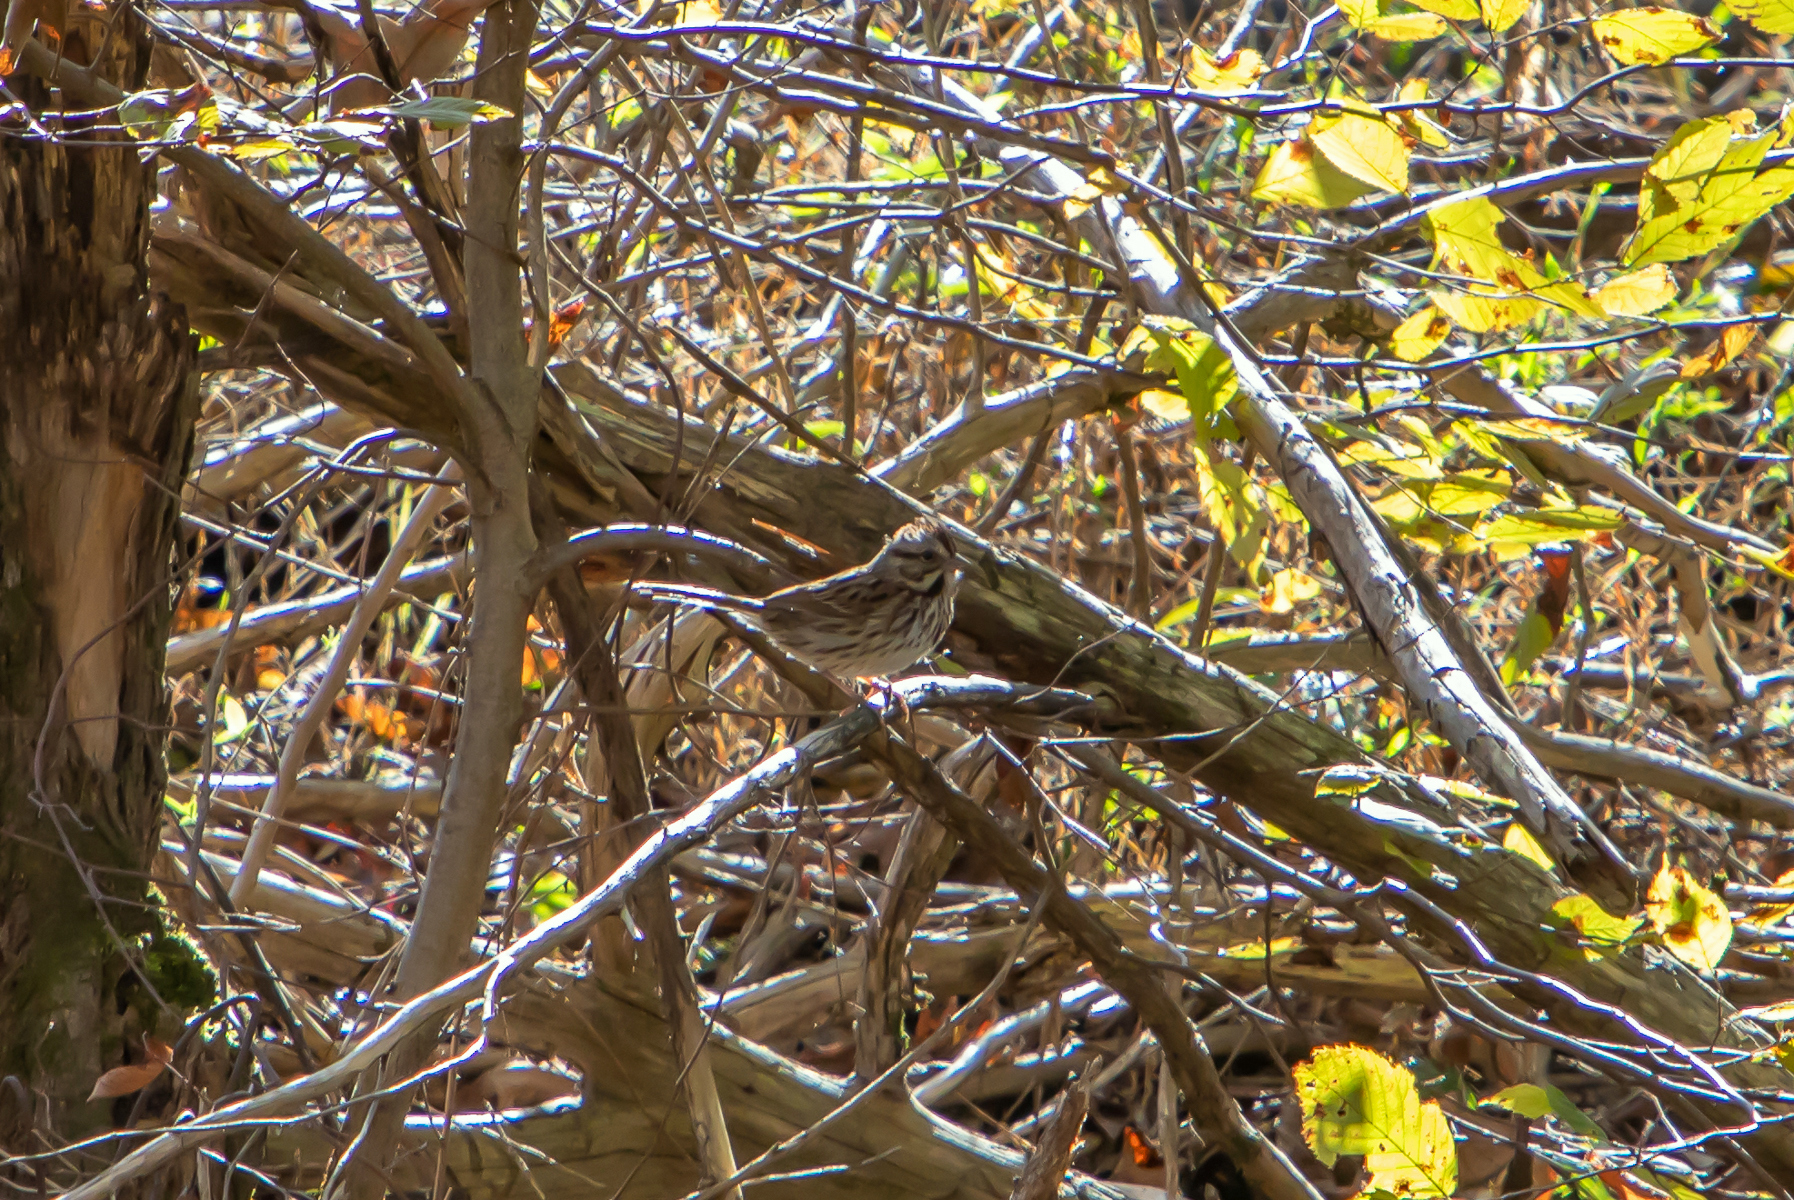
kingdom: Animalia
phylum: Chordata
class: Aves
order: Passeriformes
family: Passerellidae
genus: Melospiza
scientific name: Melospiza melodia
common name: Song sparrow
